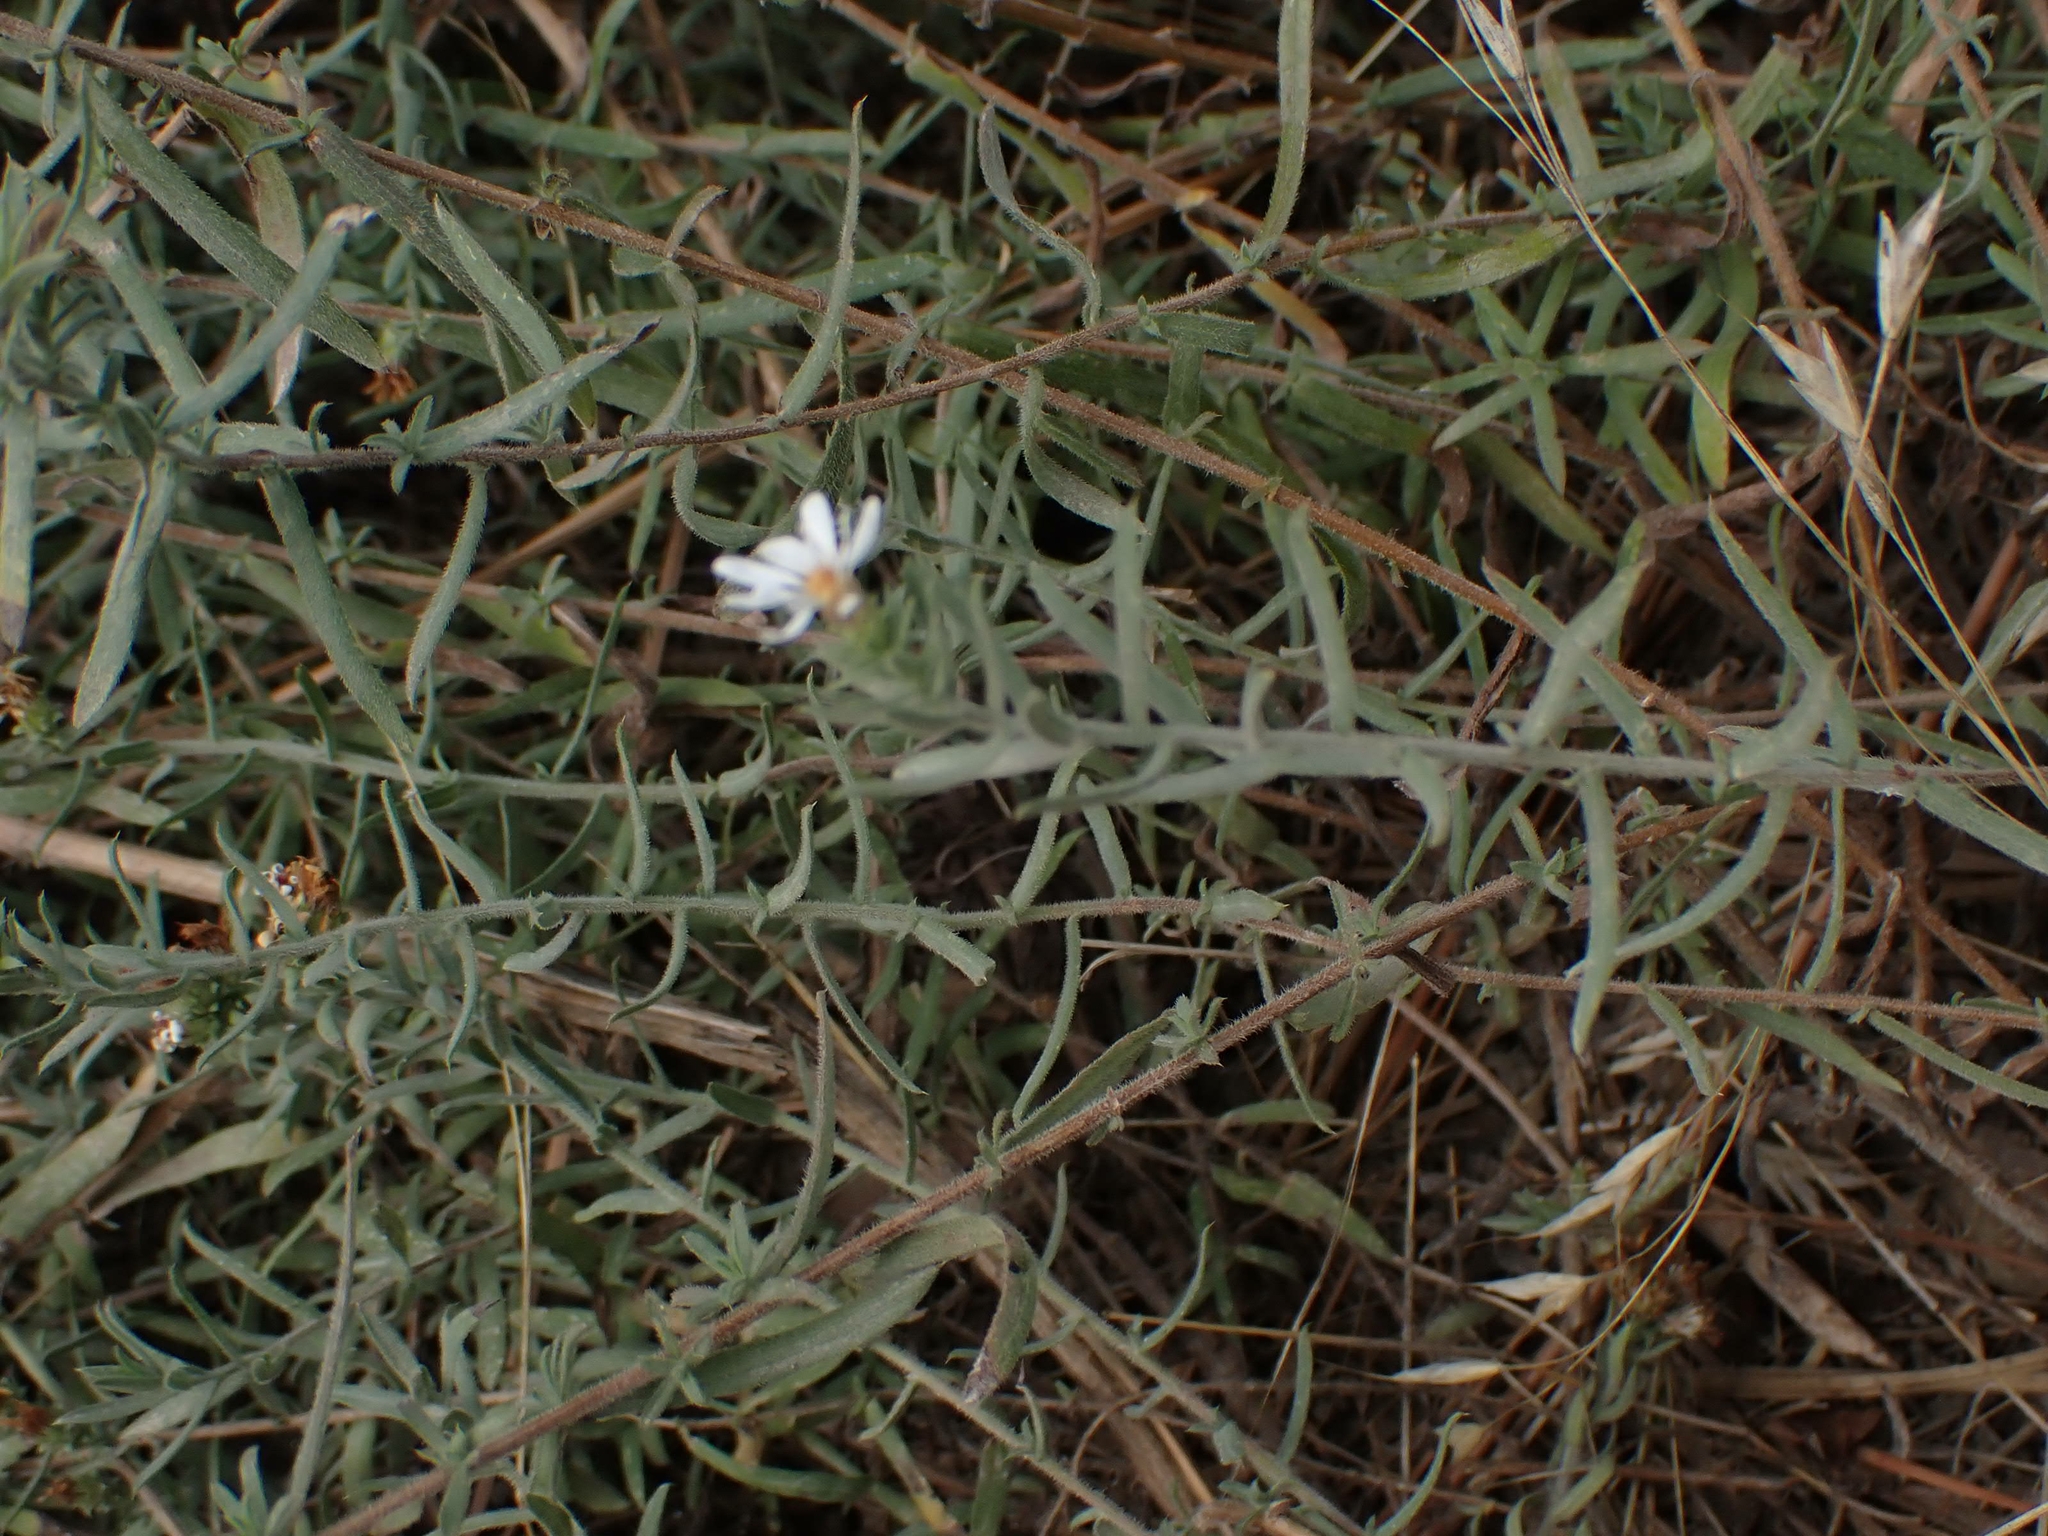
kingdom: Plantae
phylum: Tracheophyta
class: Magnoliopsida
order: Asterales
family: Asteraceae
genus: Symphyotrichum
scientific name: Symphyotrichum falcatum
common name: Creeping white prairie aster
